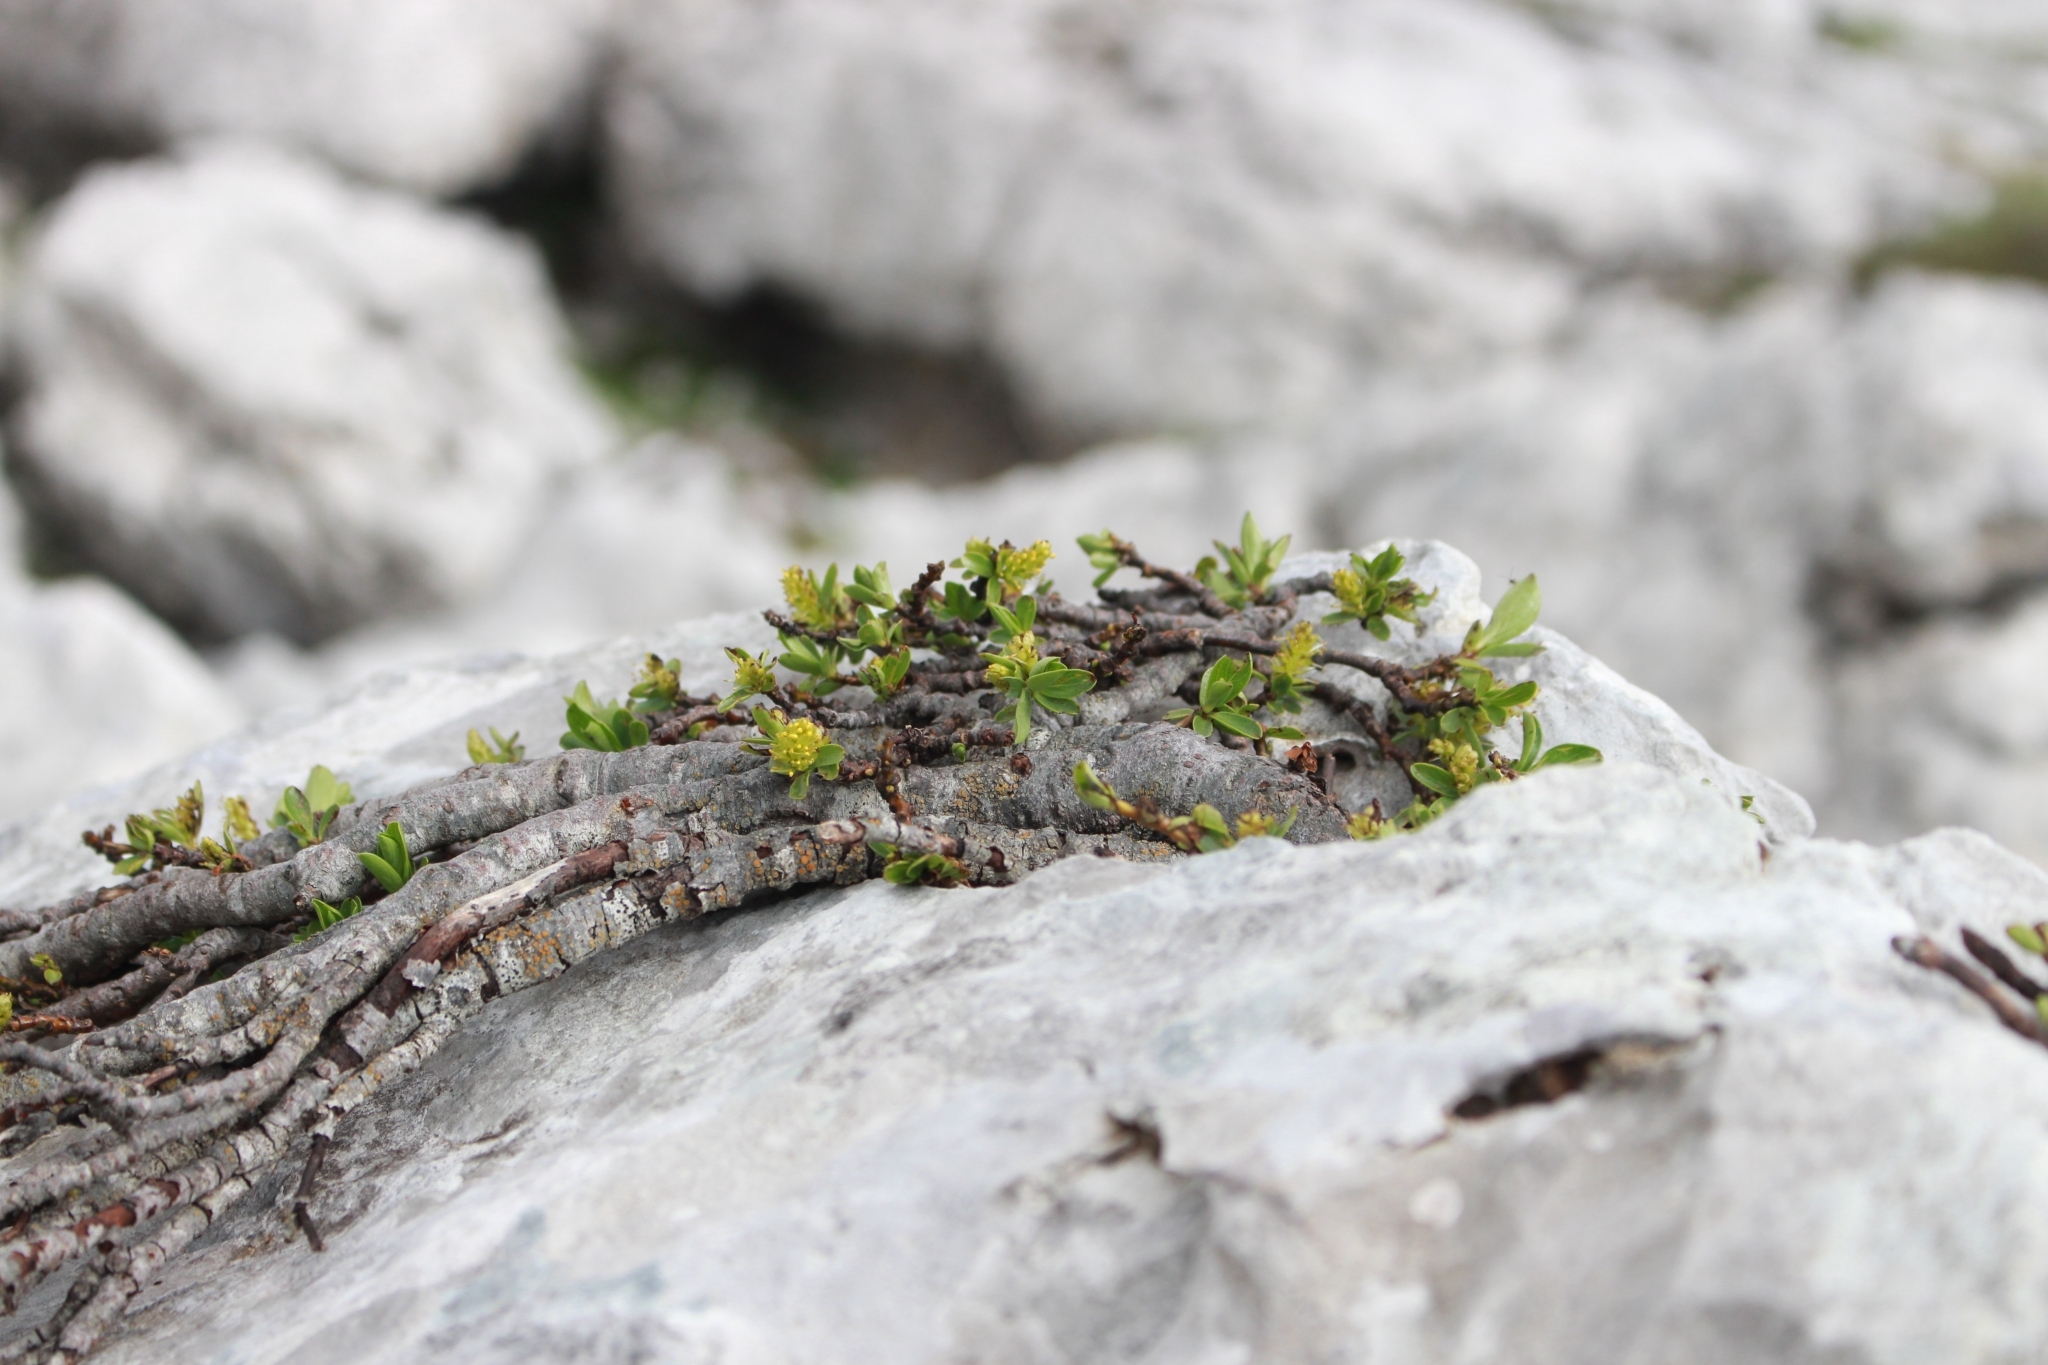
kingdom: Plantae
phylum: Tracheophyta
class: Magnoliopsida
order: Malpighiales
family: Salicaceae
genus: Salix
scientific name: Salix retusa
